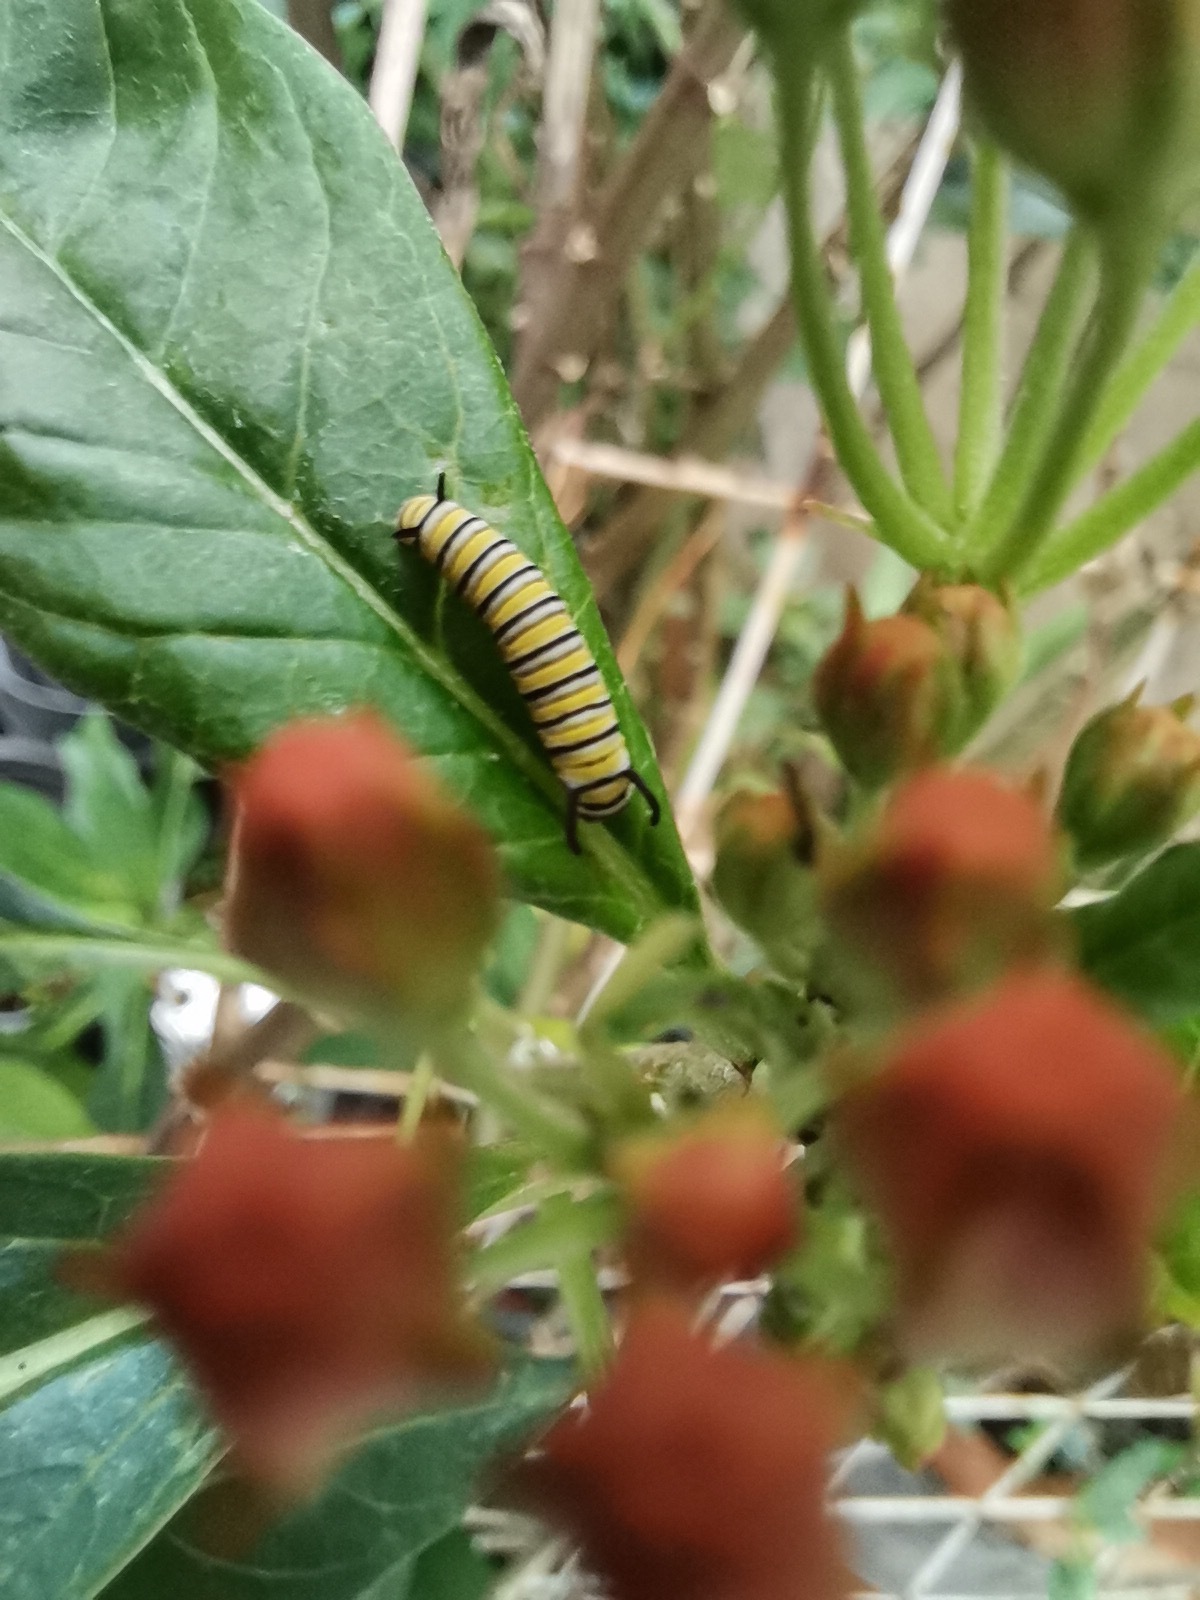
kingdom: Animalia
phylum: Arthropoda
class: Insecta
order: Lepidoptera
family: Nymphalidae
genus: Danaus
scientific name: Danaus plexippus
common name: Monarch
